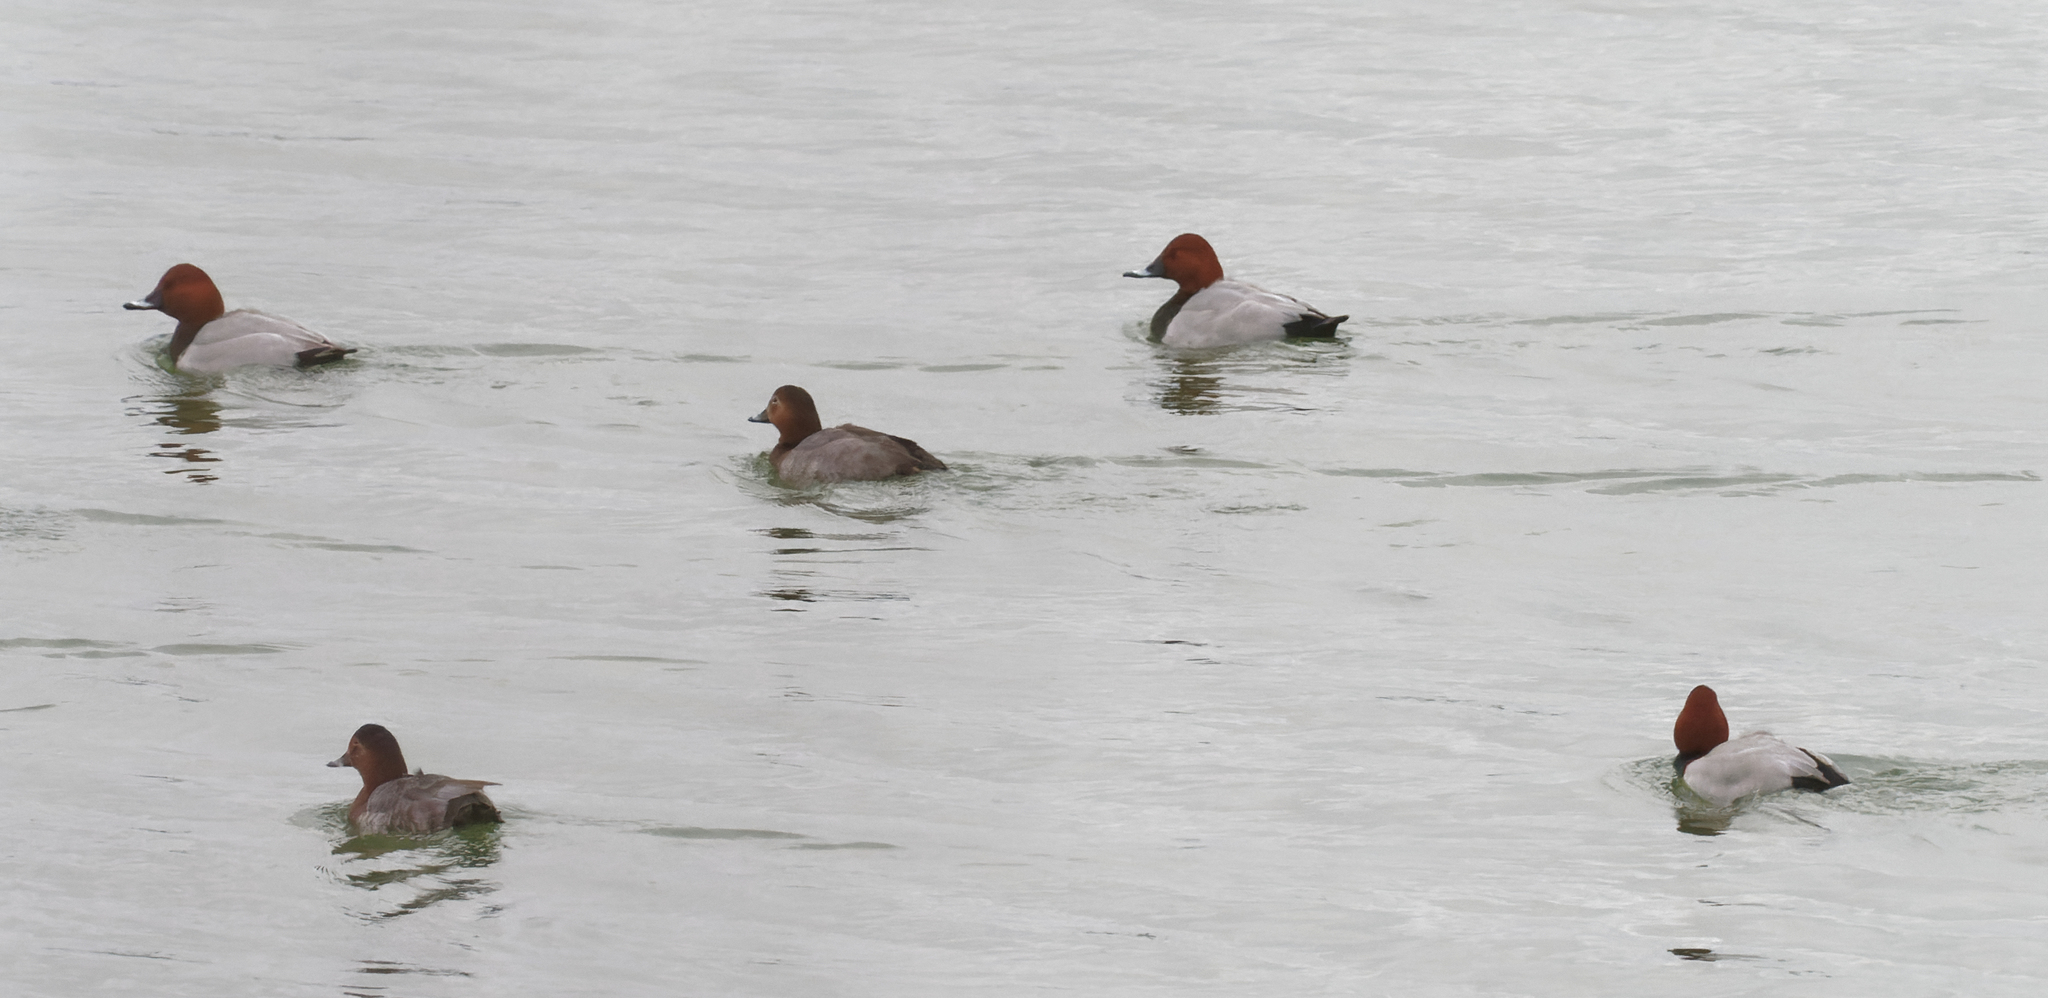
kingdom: Animalia
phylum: Chordata
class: Aves
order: Anseriformes
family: Anatidae
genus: Aythya
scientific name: Aythya ferina
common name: Common pochard
